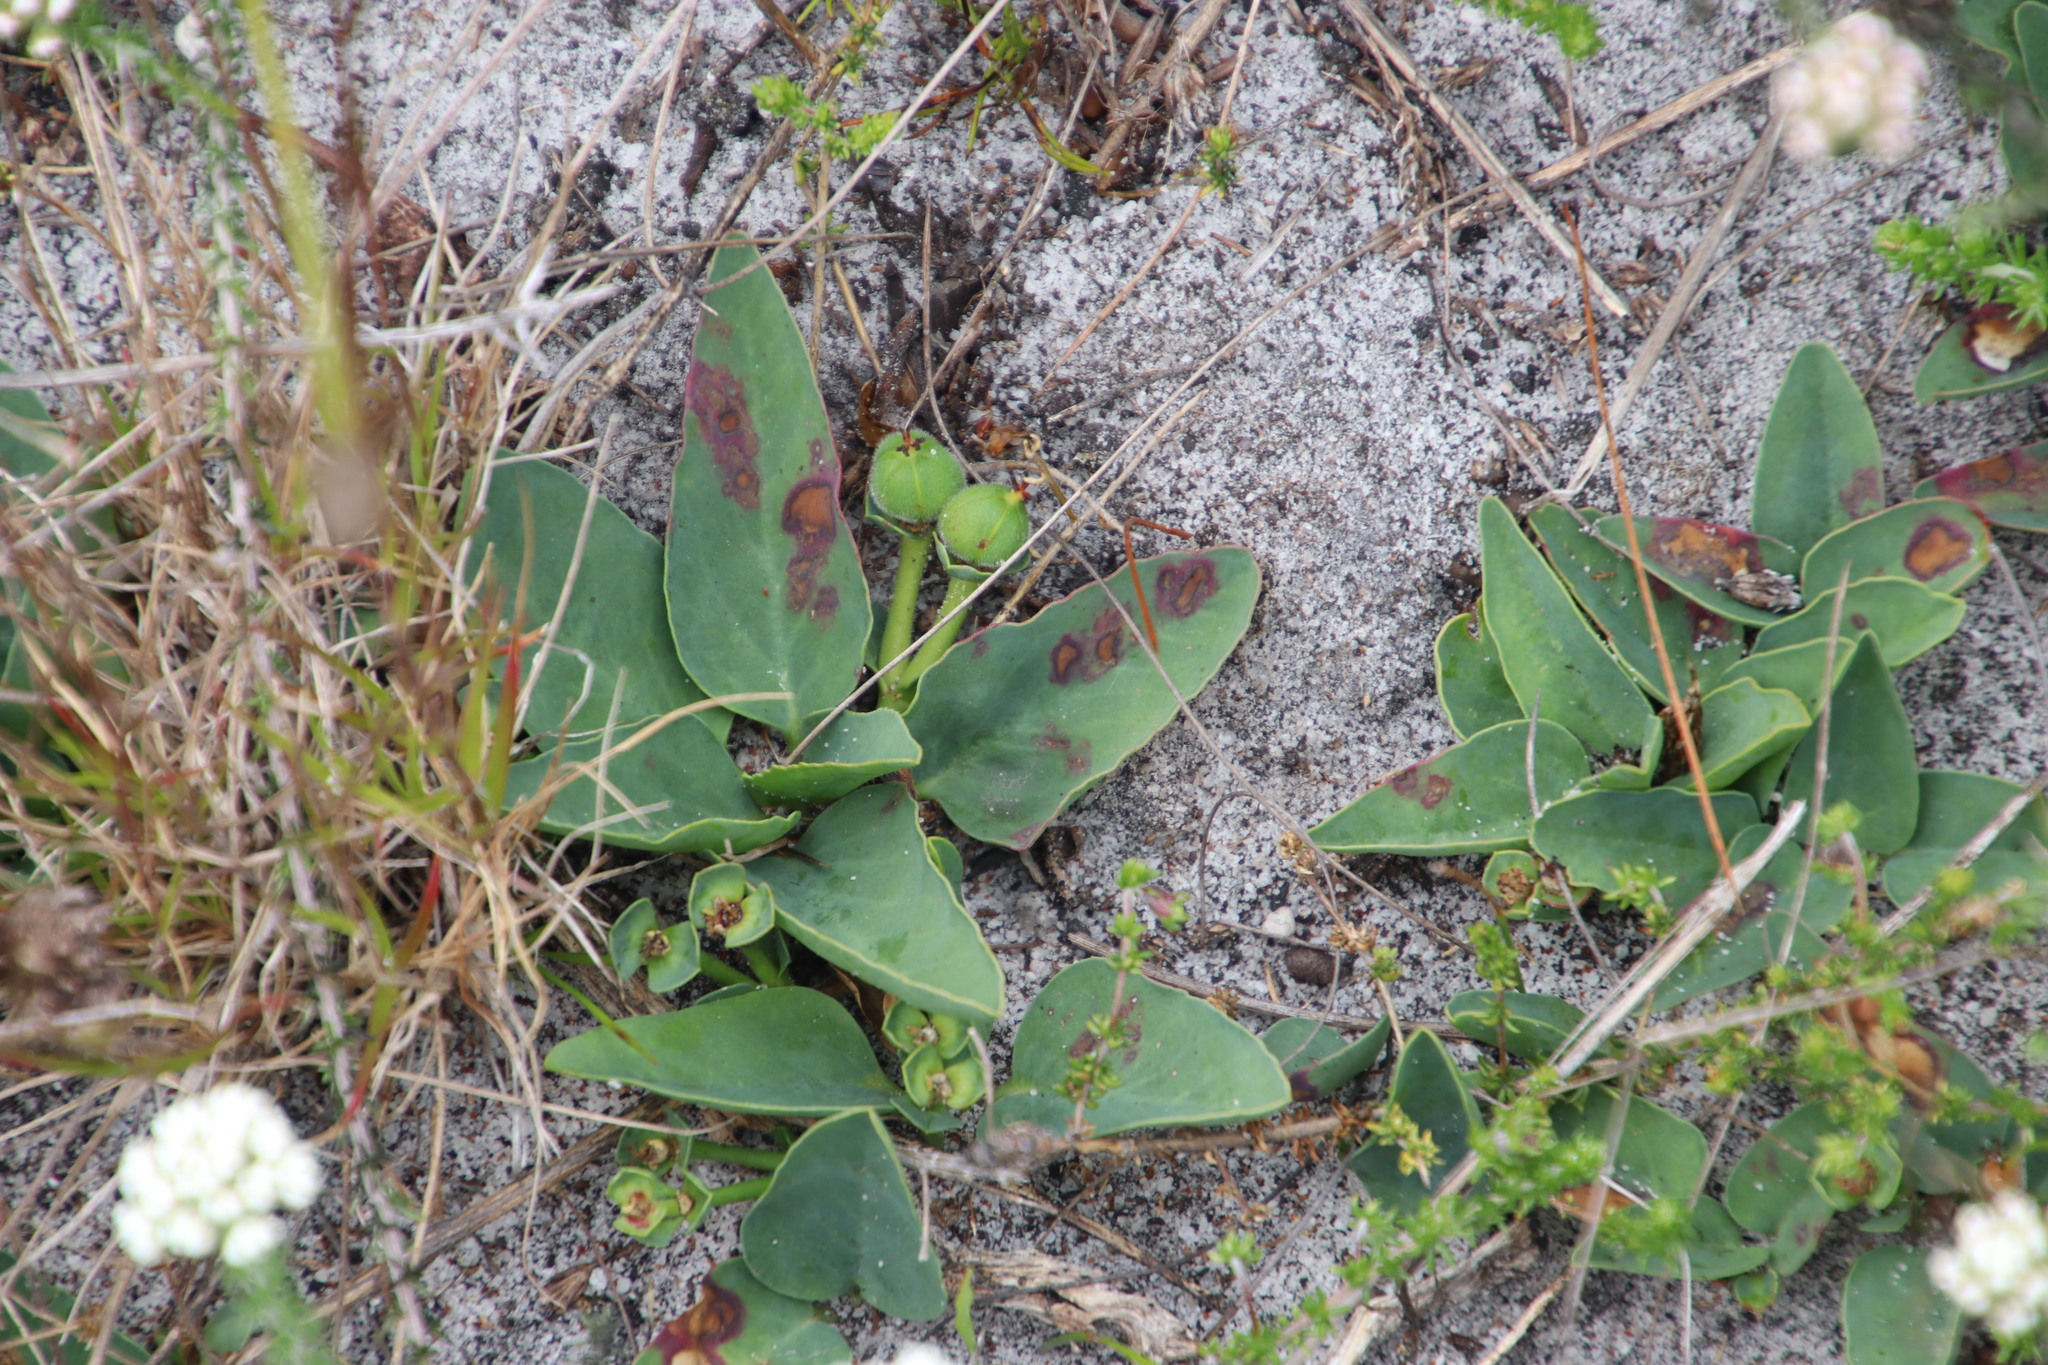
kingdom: Plantae
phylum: Tracheophyta
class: Magnoliopsida
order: Malpighiales
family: Euphorbiaceae
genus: Euphorbia
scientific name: Euphorbia tuberosa
